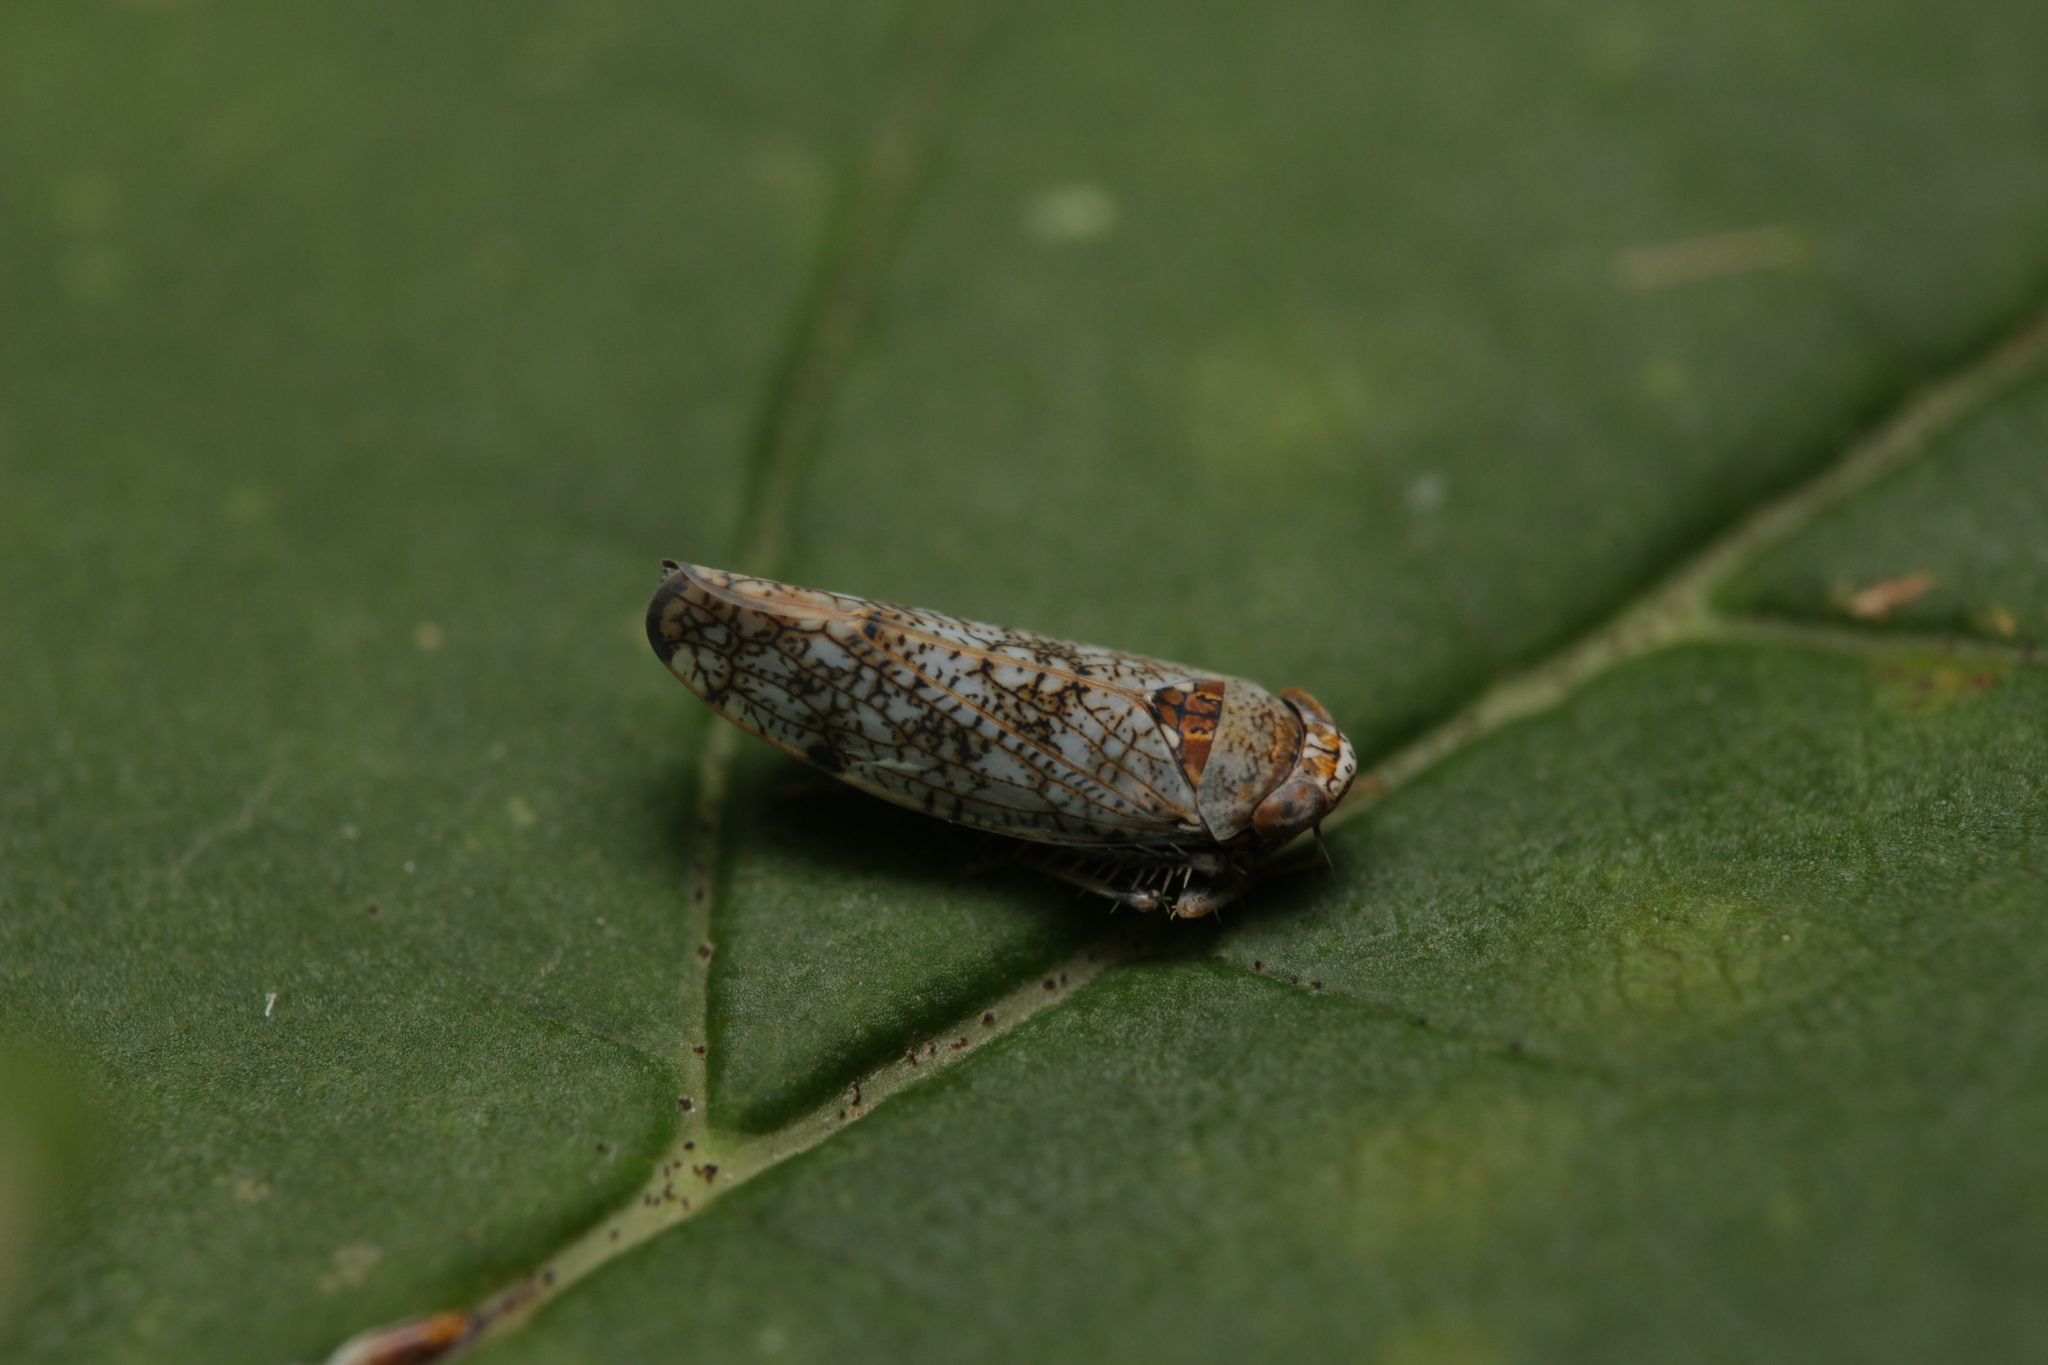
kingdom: Animalia
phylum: Arthropoda
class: Insecta
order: Hemiptera
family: Cicadellidae
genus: Orientus
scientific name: Orientus ishidae
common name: Japanese leafhopper
